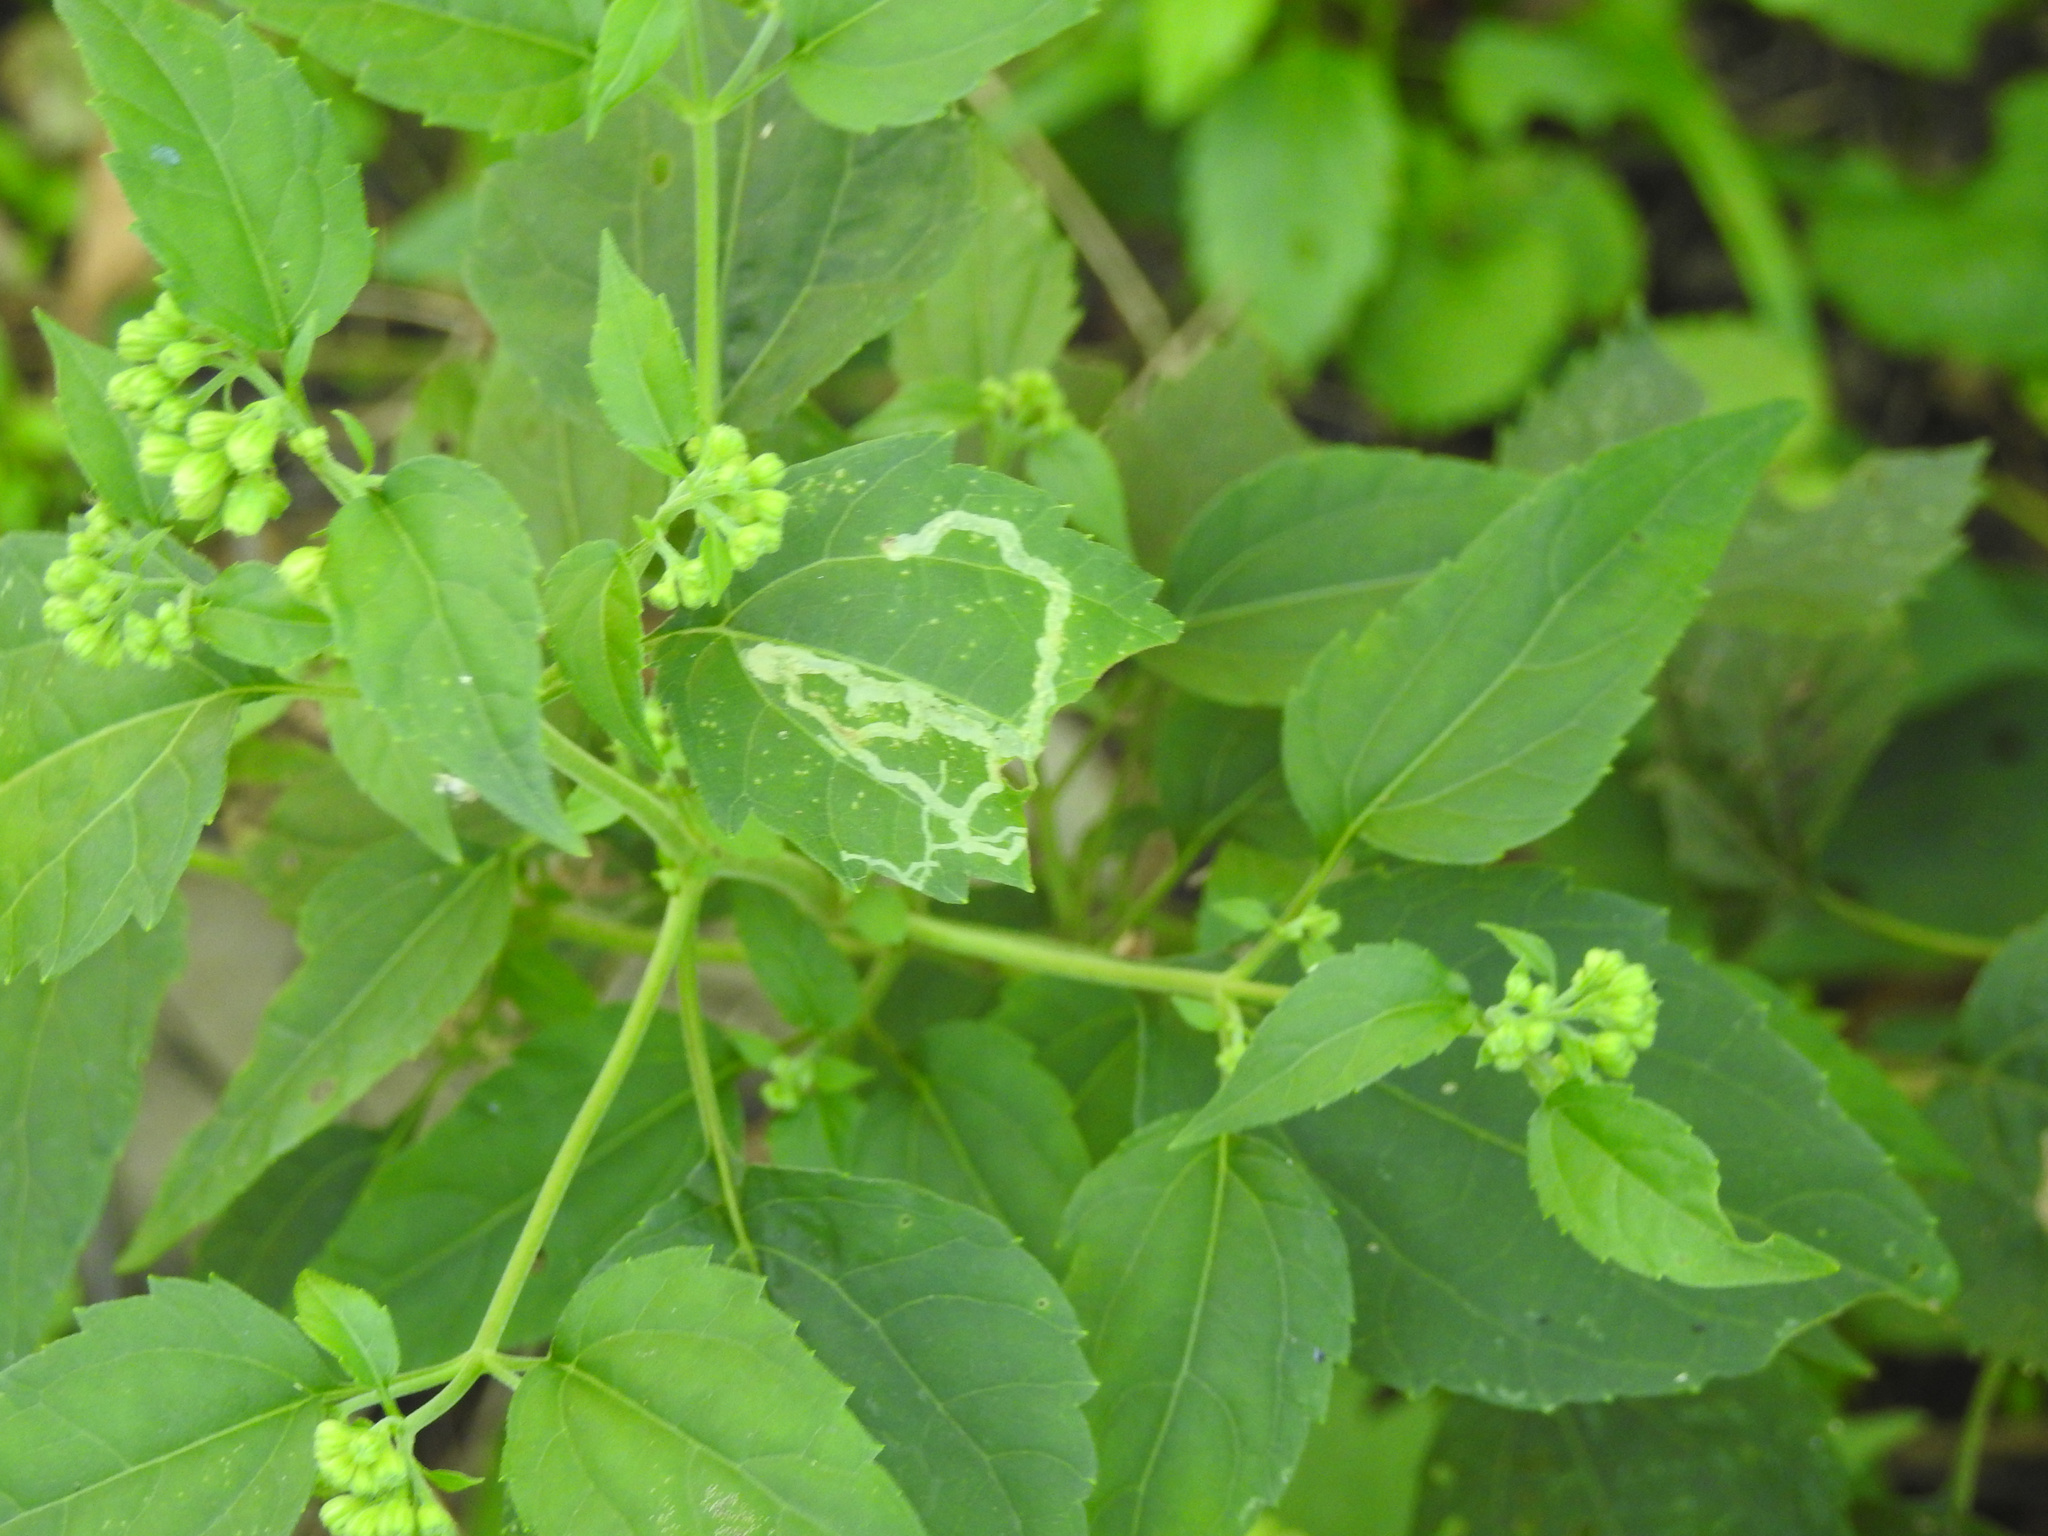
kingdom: Plantae
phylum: Tracheophyta
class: Magnoliopsida
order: Asterales
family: Asteraceae
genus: Ageratina
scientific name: Ageratina altissima
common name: White snakeroot
